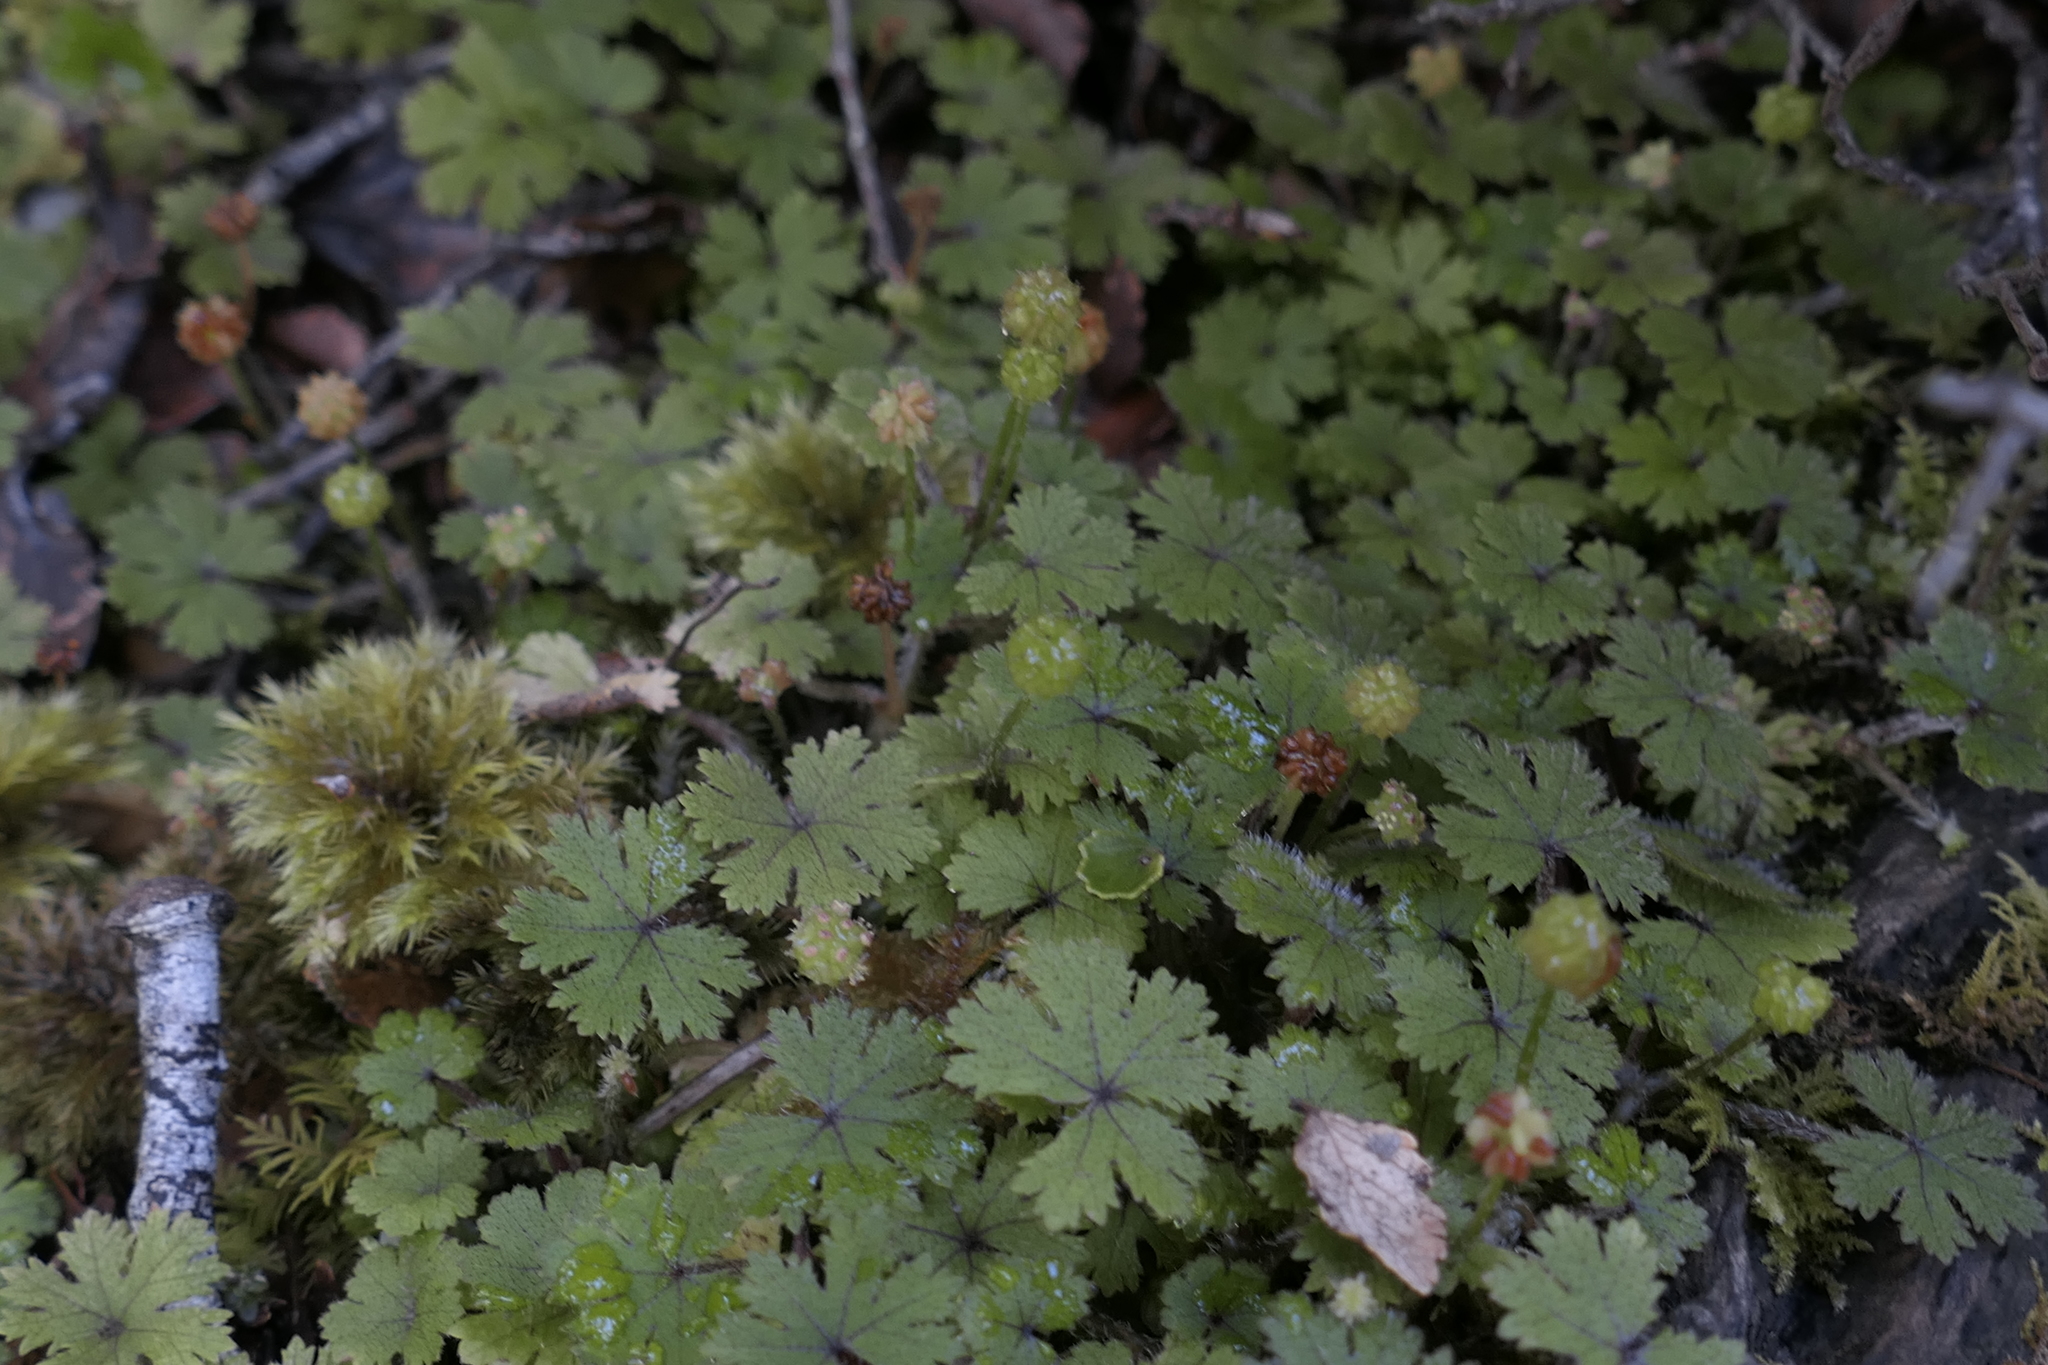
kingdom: Plantae
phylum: Tracheophyta
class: Magnoliopsida
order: Apiales
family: Araliaceae
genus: Hydrocotyle
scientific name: Hydrocotyle dissecta
